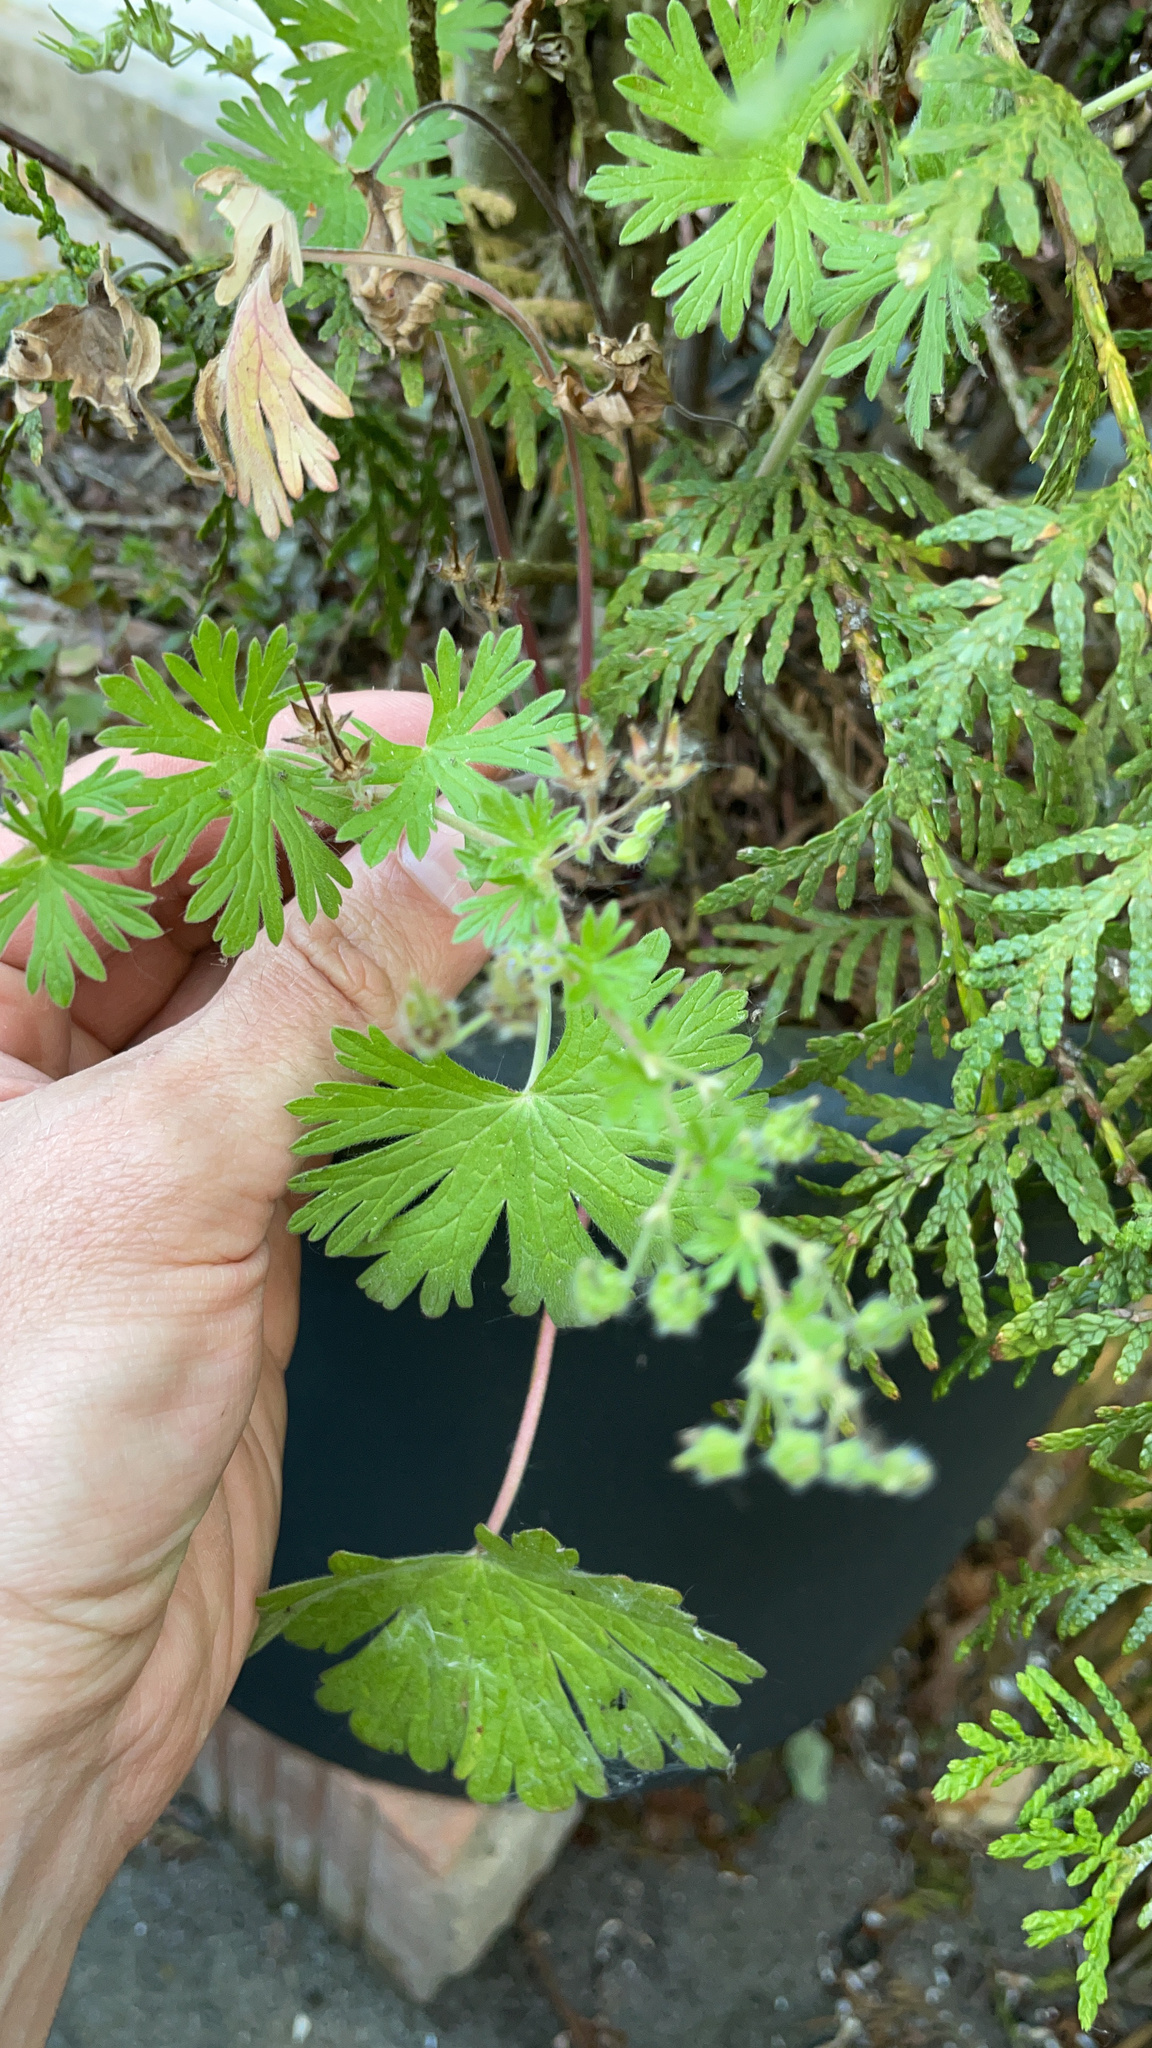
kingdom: Plantae
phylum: Tracheophyta
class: Magnoliopsida
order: Geraniales
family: Geraniaceae
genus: Geranium
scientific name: Geranium pusillum
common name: Small geranium
